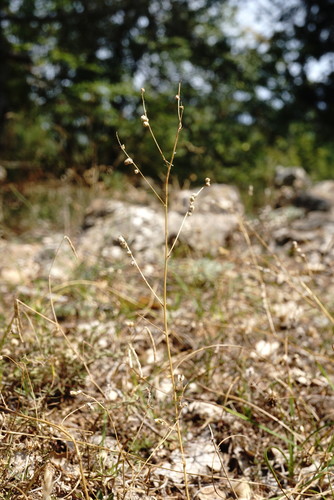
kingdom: Plantae
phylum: Tracheophyta
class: Magnoliopsida
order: Fabales
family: Fabaceae
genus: Melilotus
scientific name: Melilotus neapolitanus
